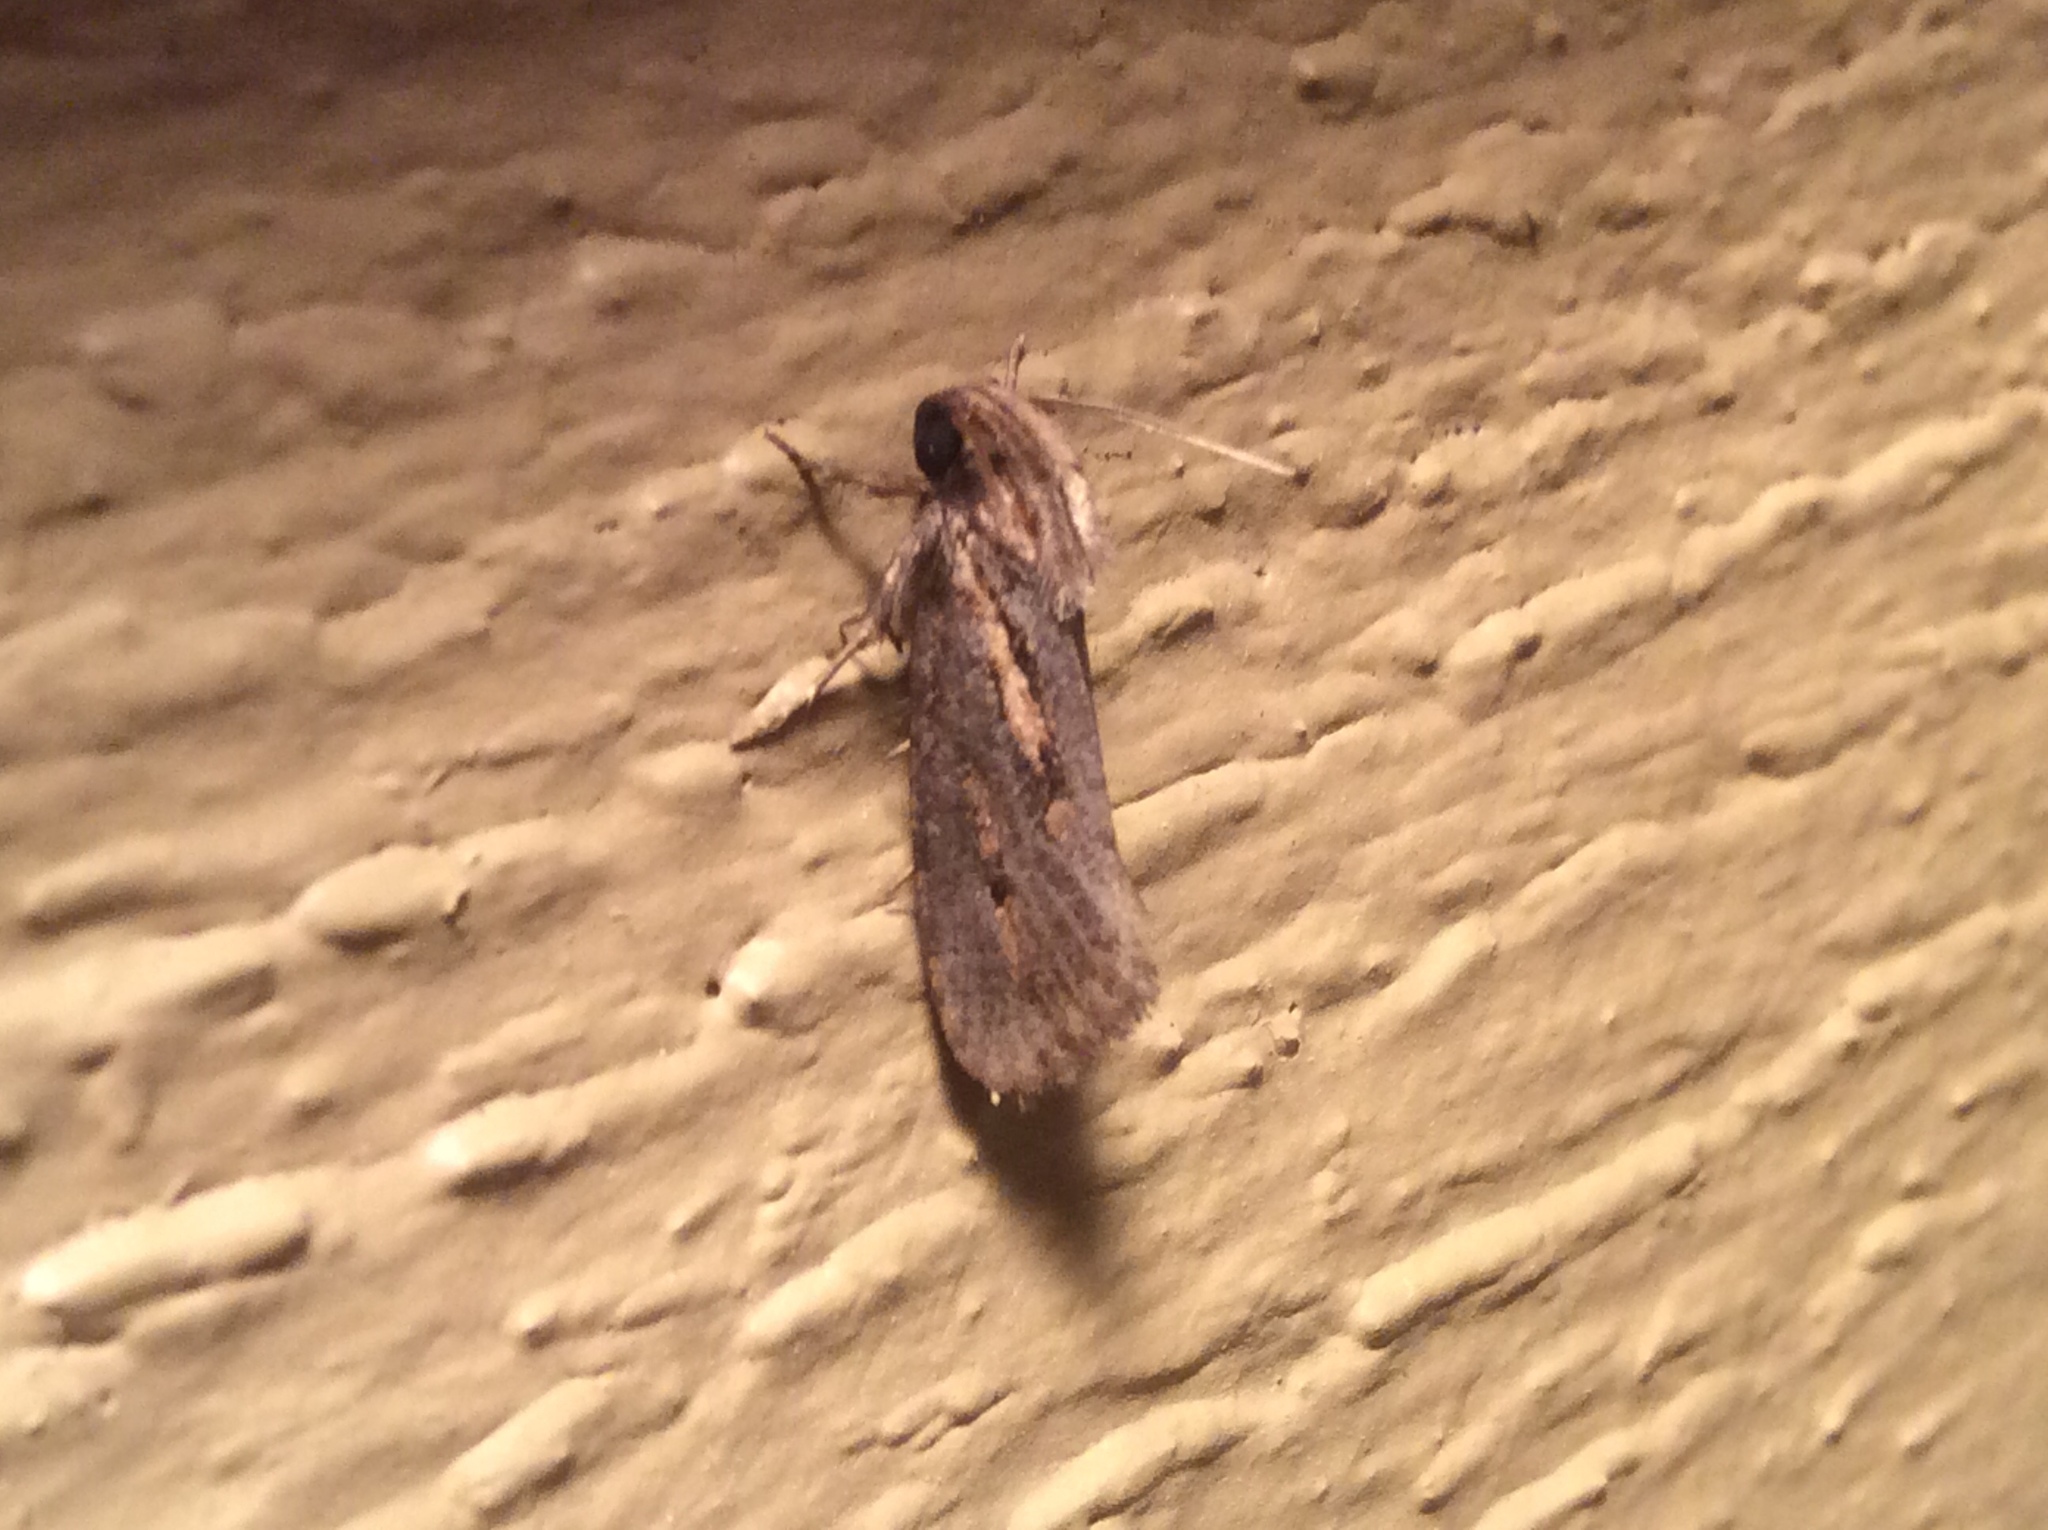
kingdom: Animalia
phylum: Arthropoda
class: Insecta
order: Lepidoptera
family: Tineidae
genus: Acrolophus
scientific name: Acrolophus popeanella
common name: Clemens' grass tubeworm moth
